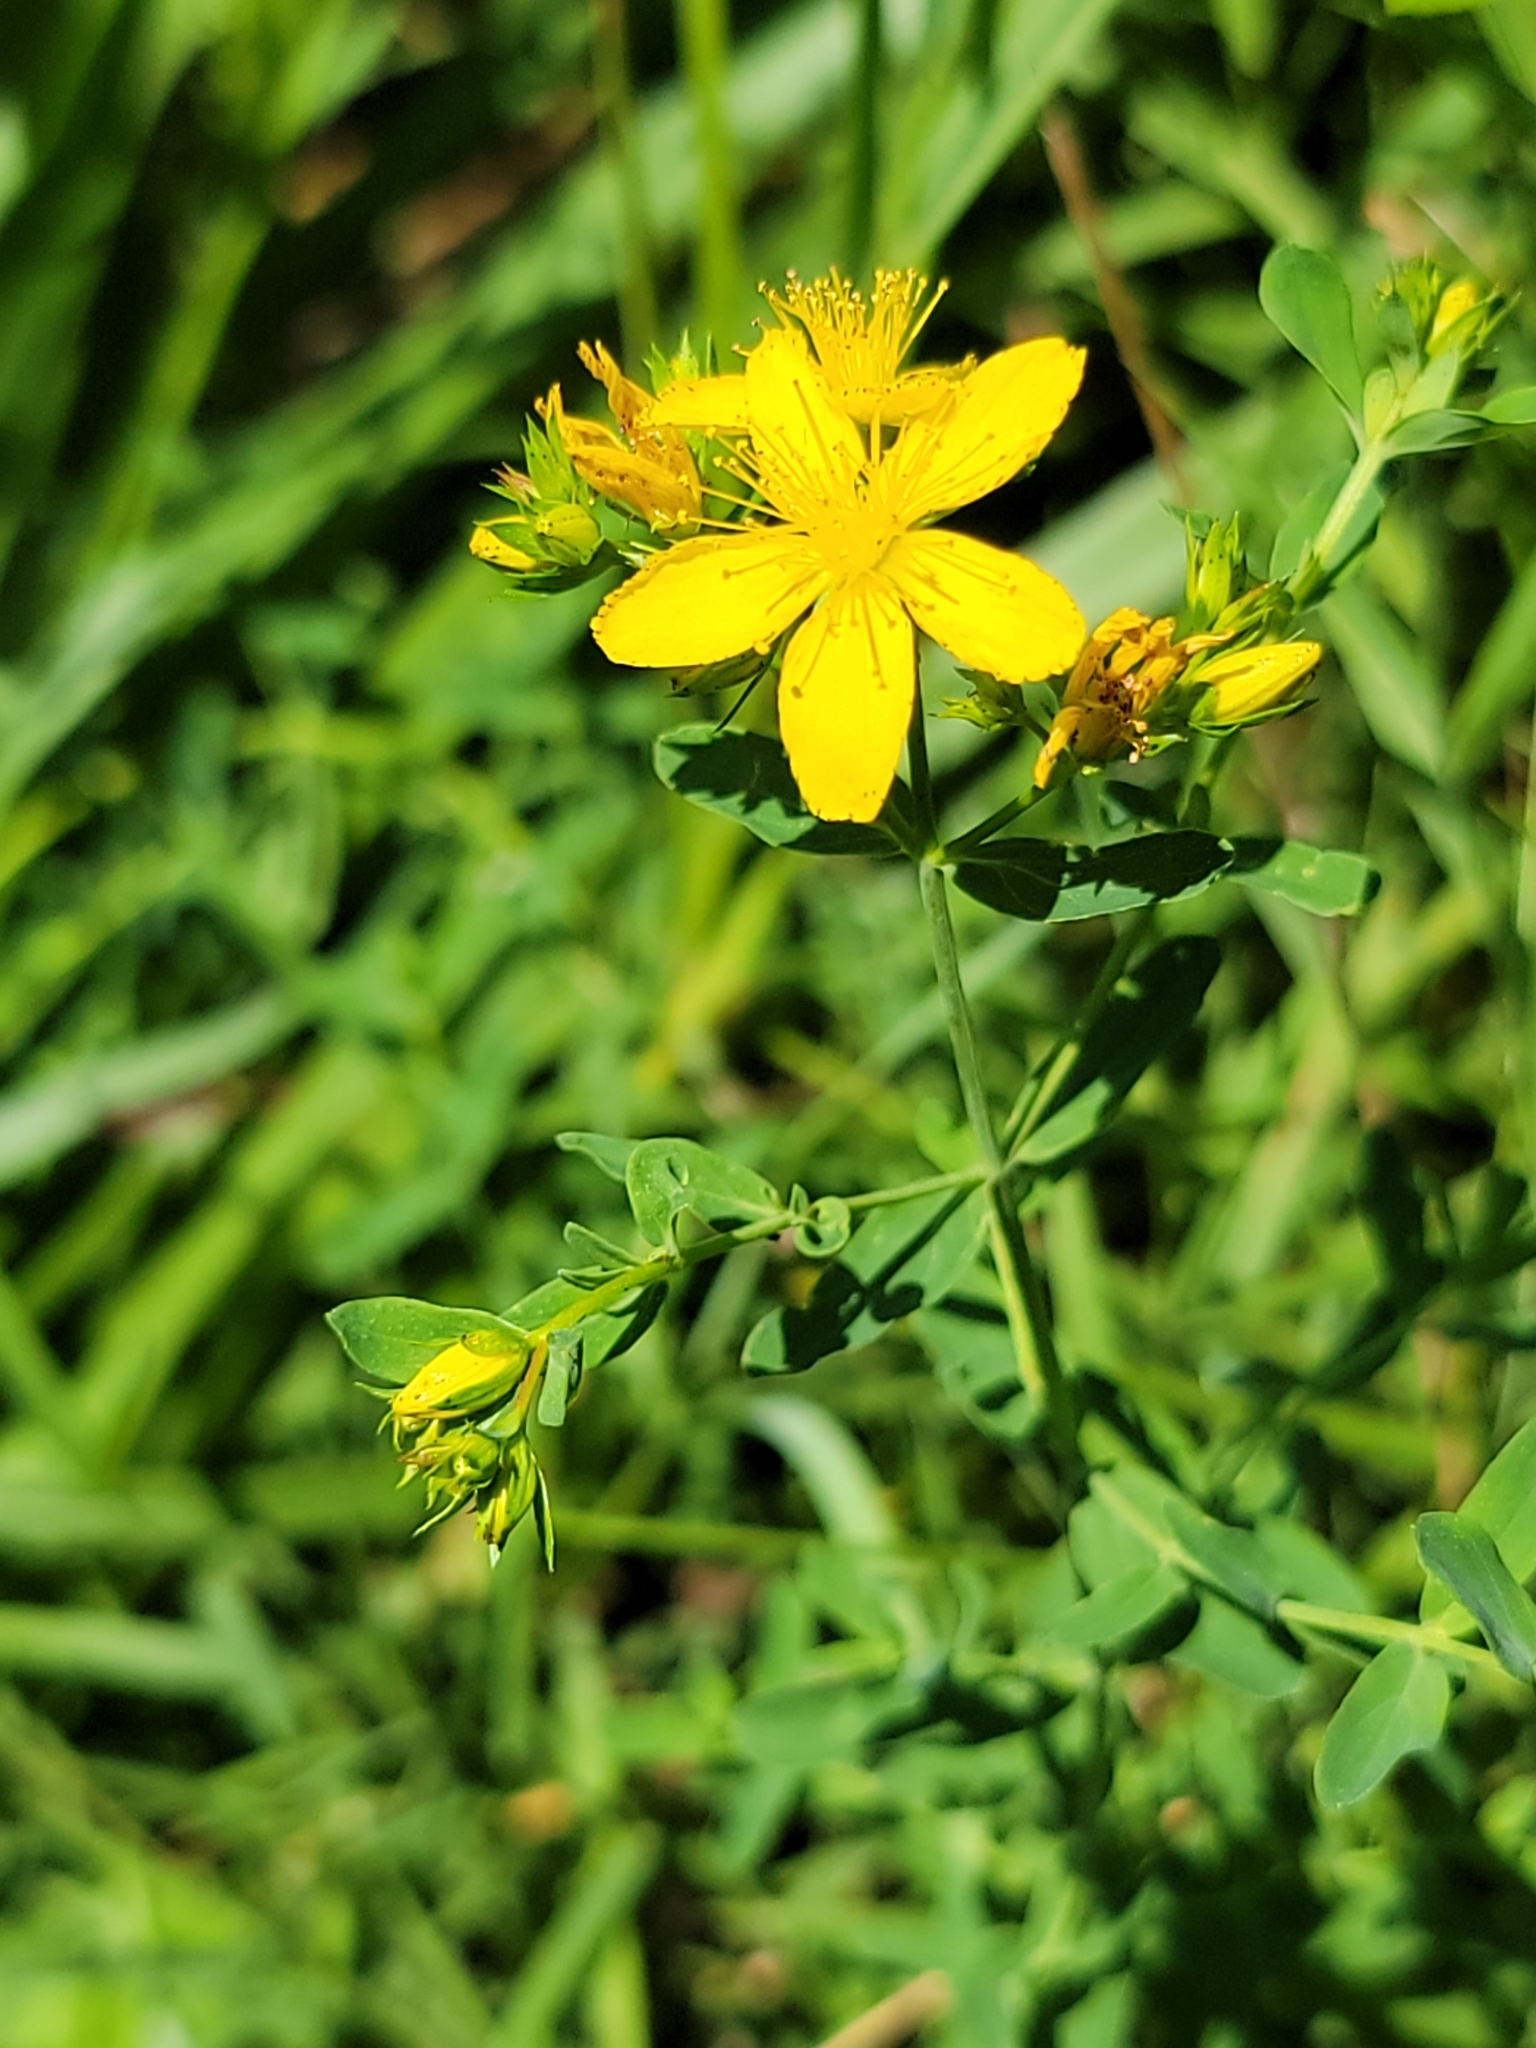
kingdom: Plantae
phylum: Tracheophyta
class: Magnoliopsida
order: Malpighiales
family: Hypericaceae
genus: Hypericum
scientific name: Hypericum perforatum
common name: Common st. johnswort
